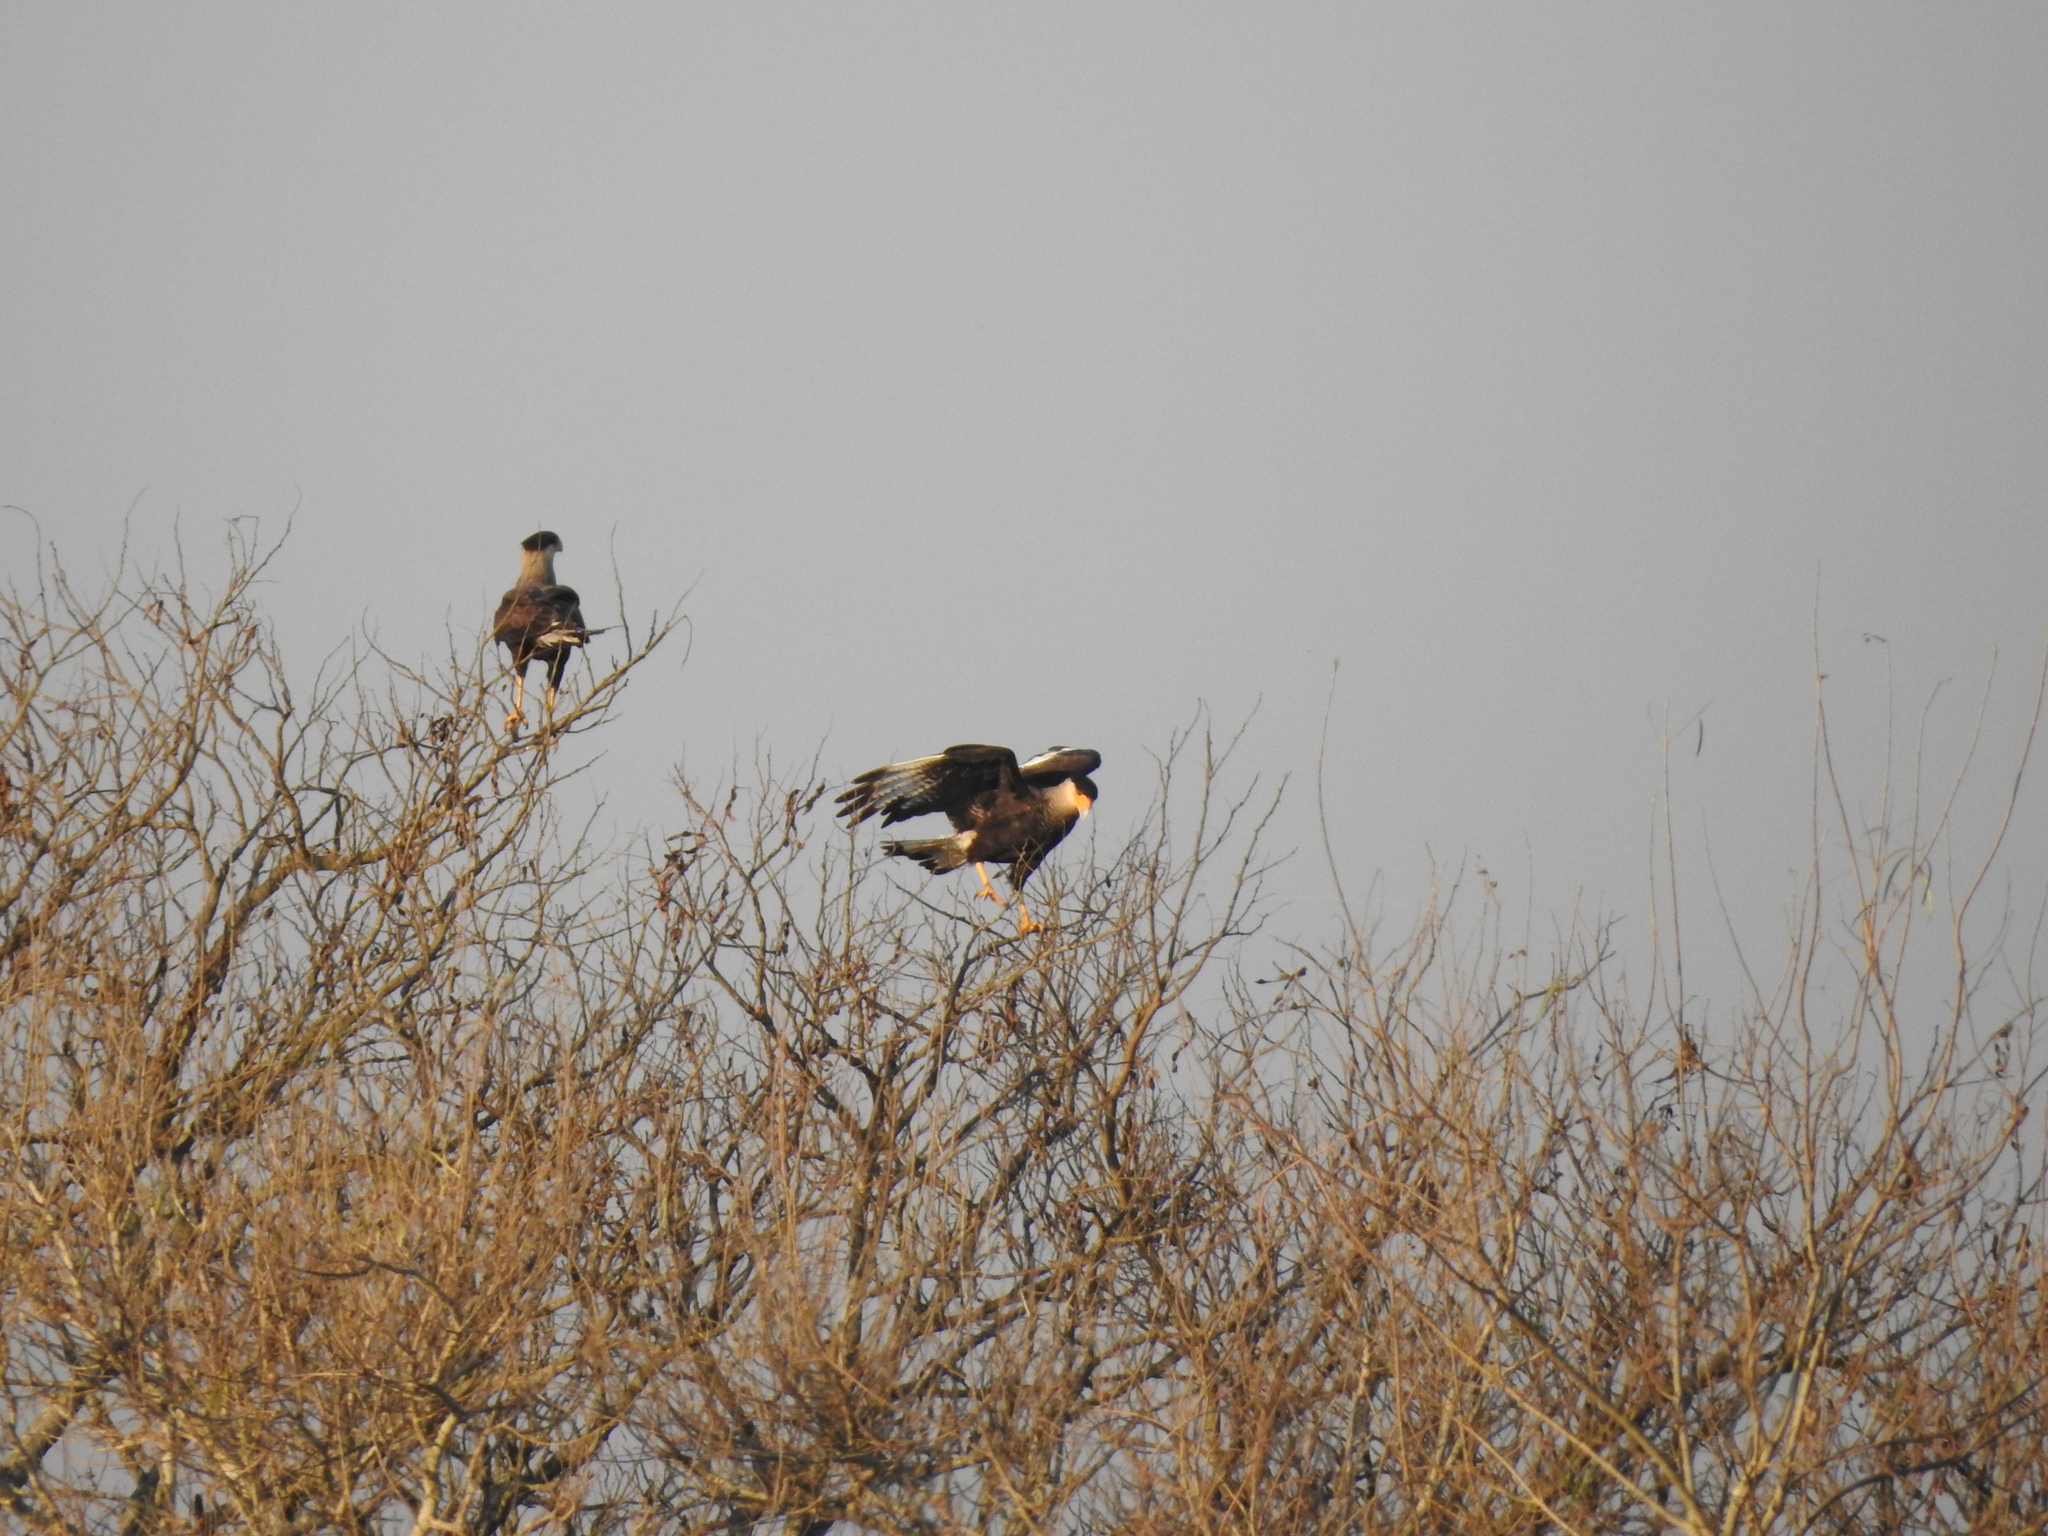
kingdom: Animalia
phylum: Chordata
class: Aves
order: Falconiformes
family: Falconidae
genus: Caracara
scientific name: Caracara plancus
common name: Southern caracara
